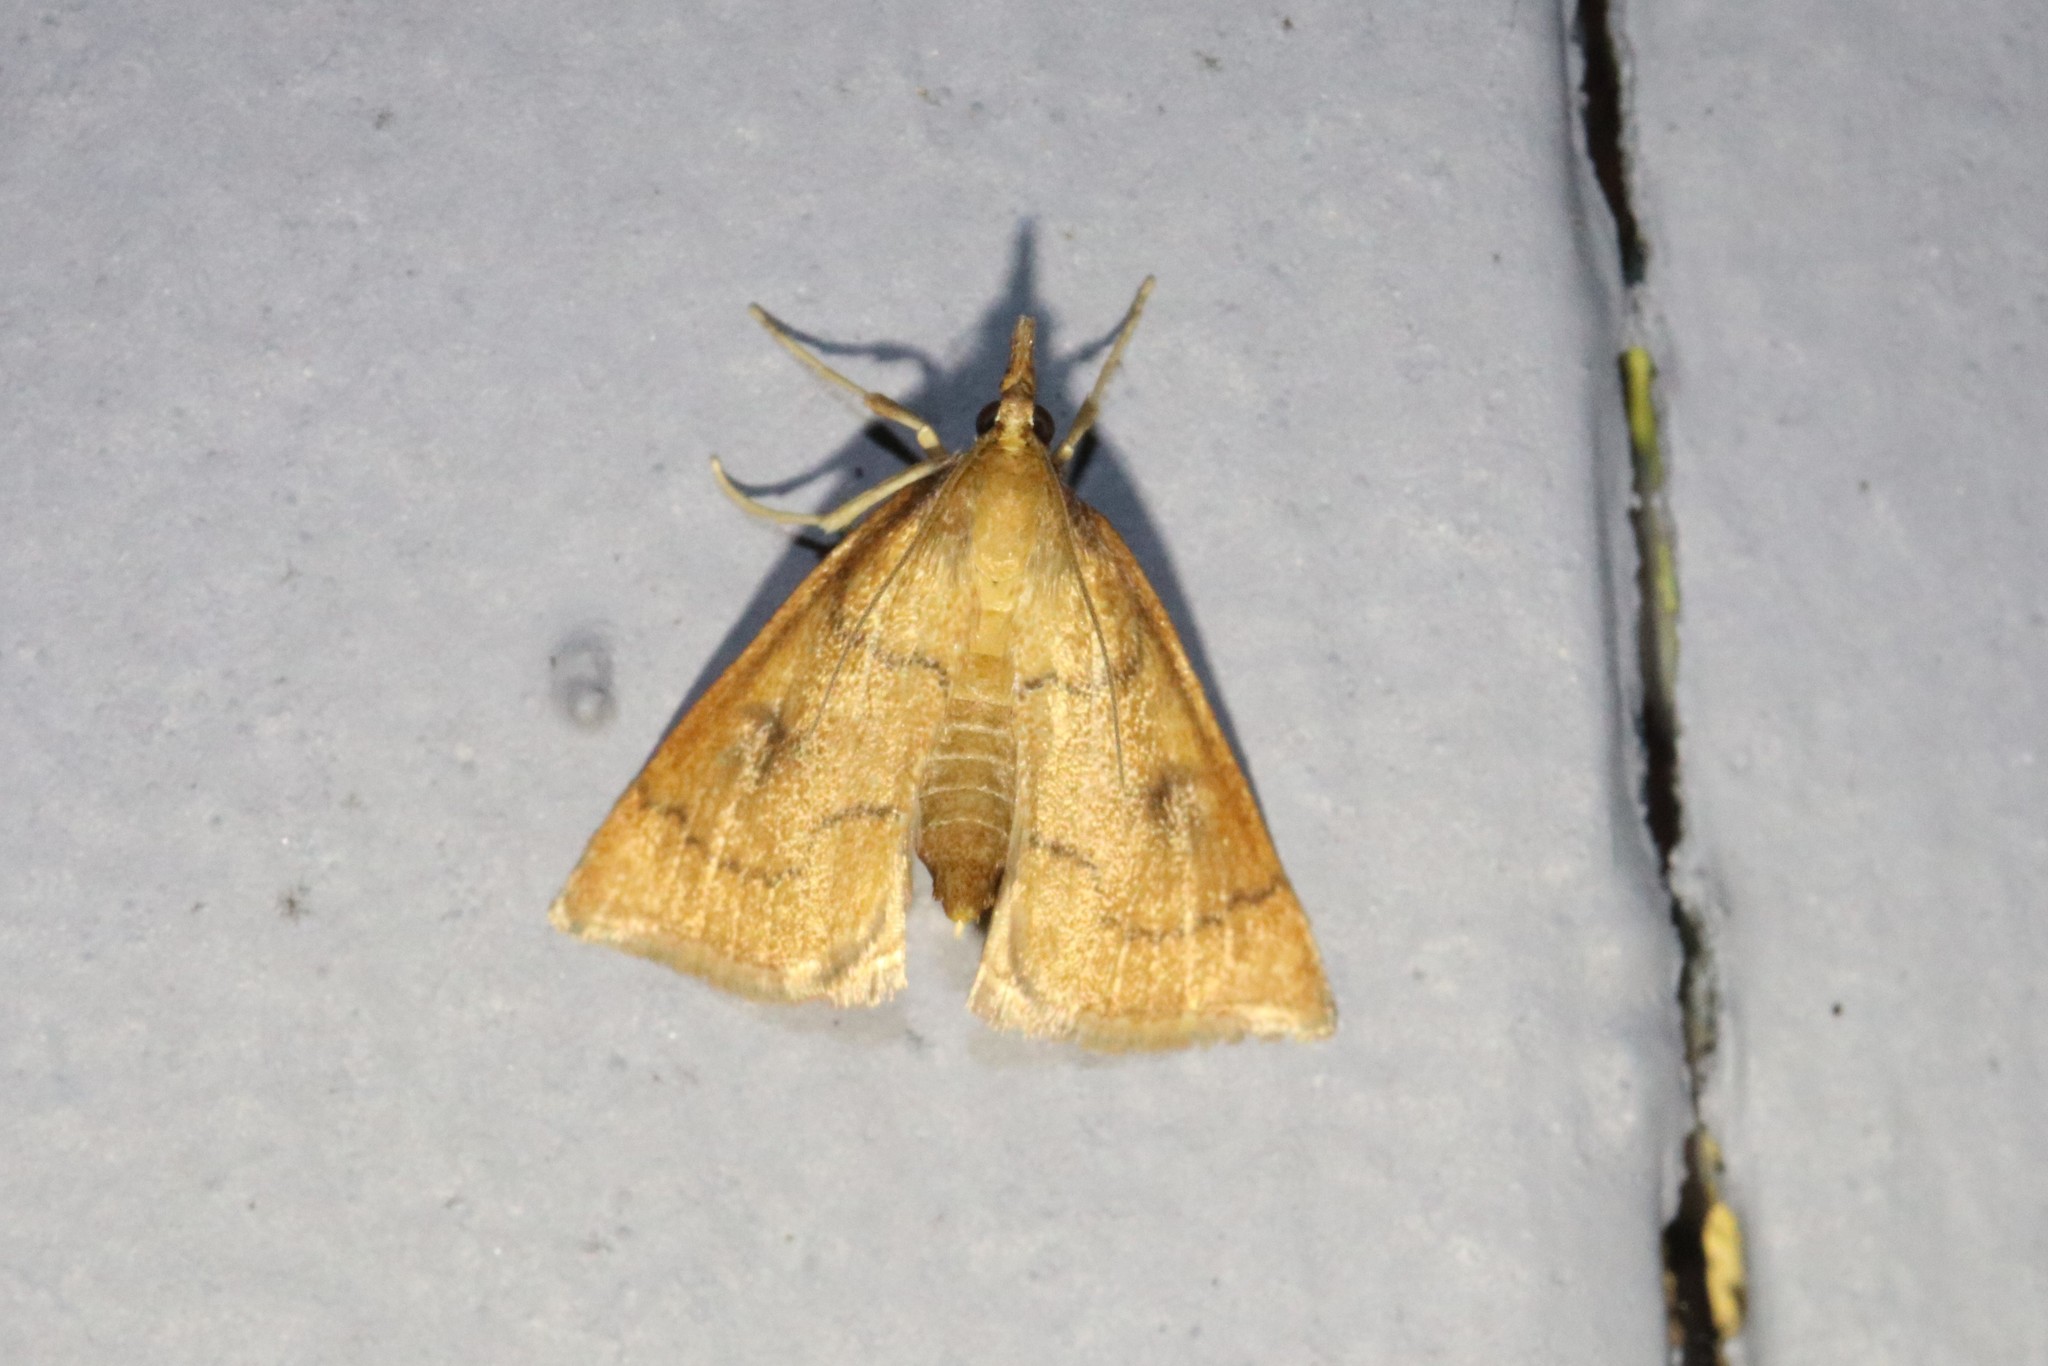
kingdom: Animalia
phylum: Arthropoda
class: Insecta
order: Lepidoptera
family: Crambidae
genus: Fumibotys
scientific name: Fumibotys fumalis
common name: Mint root borer moth
